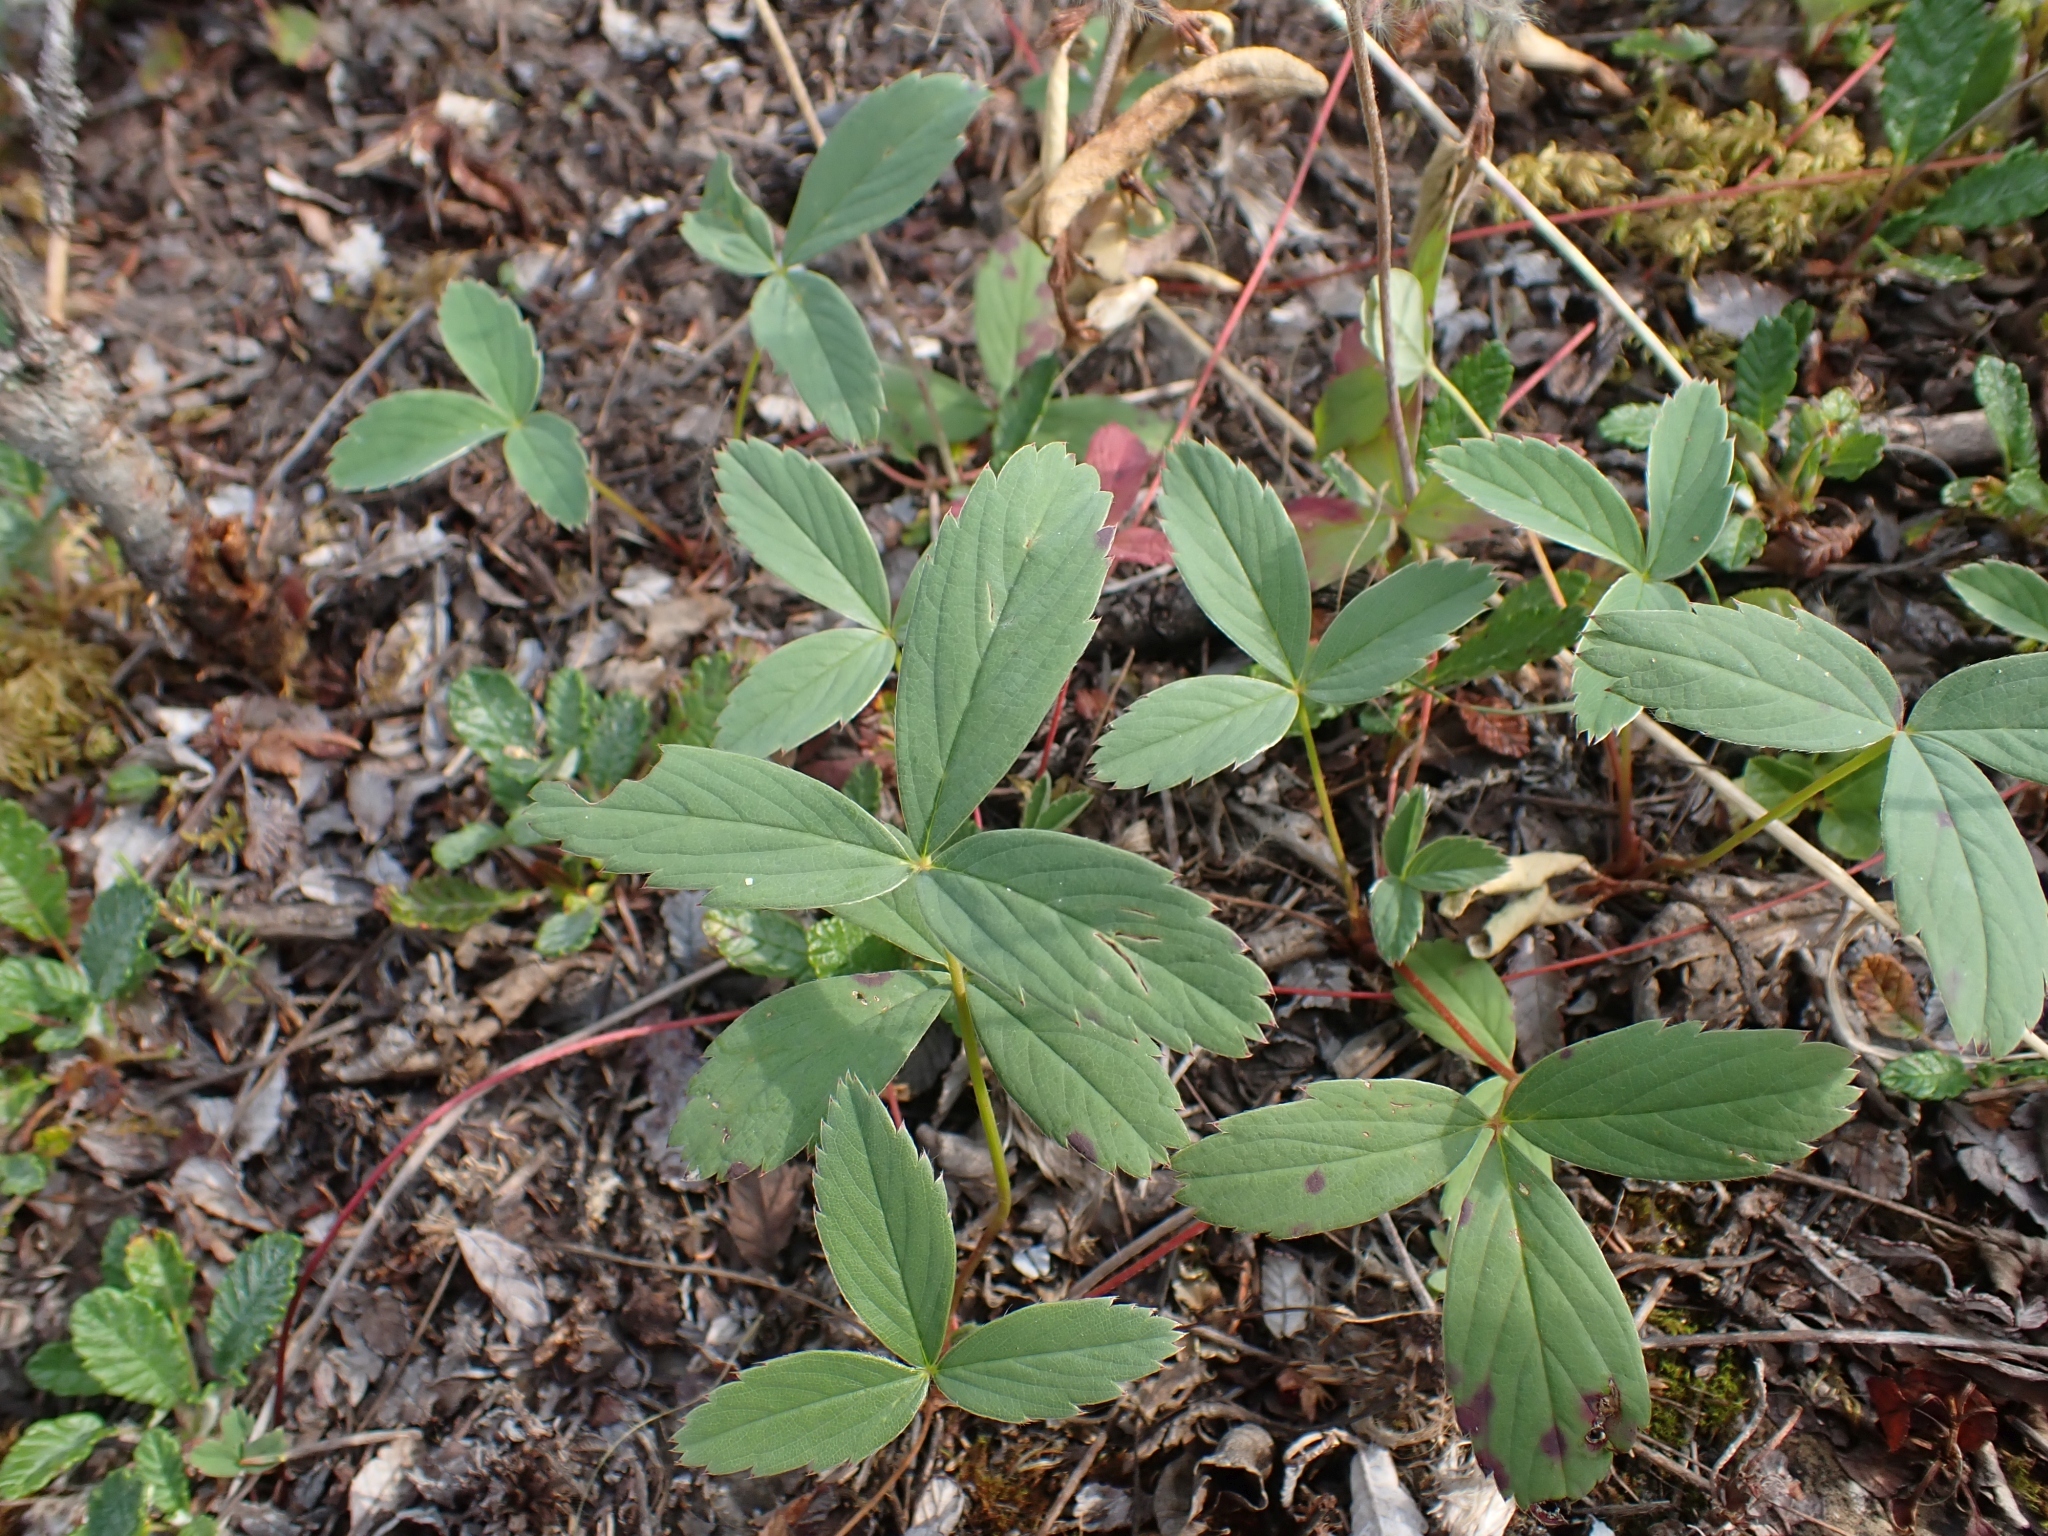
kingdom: Plantae
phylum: Tracheophyta
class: Magnoliopsida
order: Rosales
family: Rosaceae
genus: Fragaria
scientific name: Fragaria virginiana
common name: Thickleaved wild strawberry
